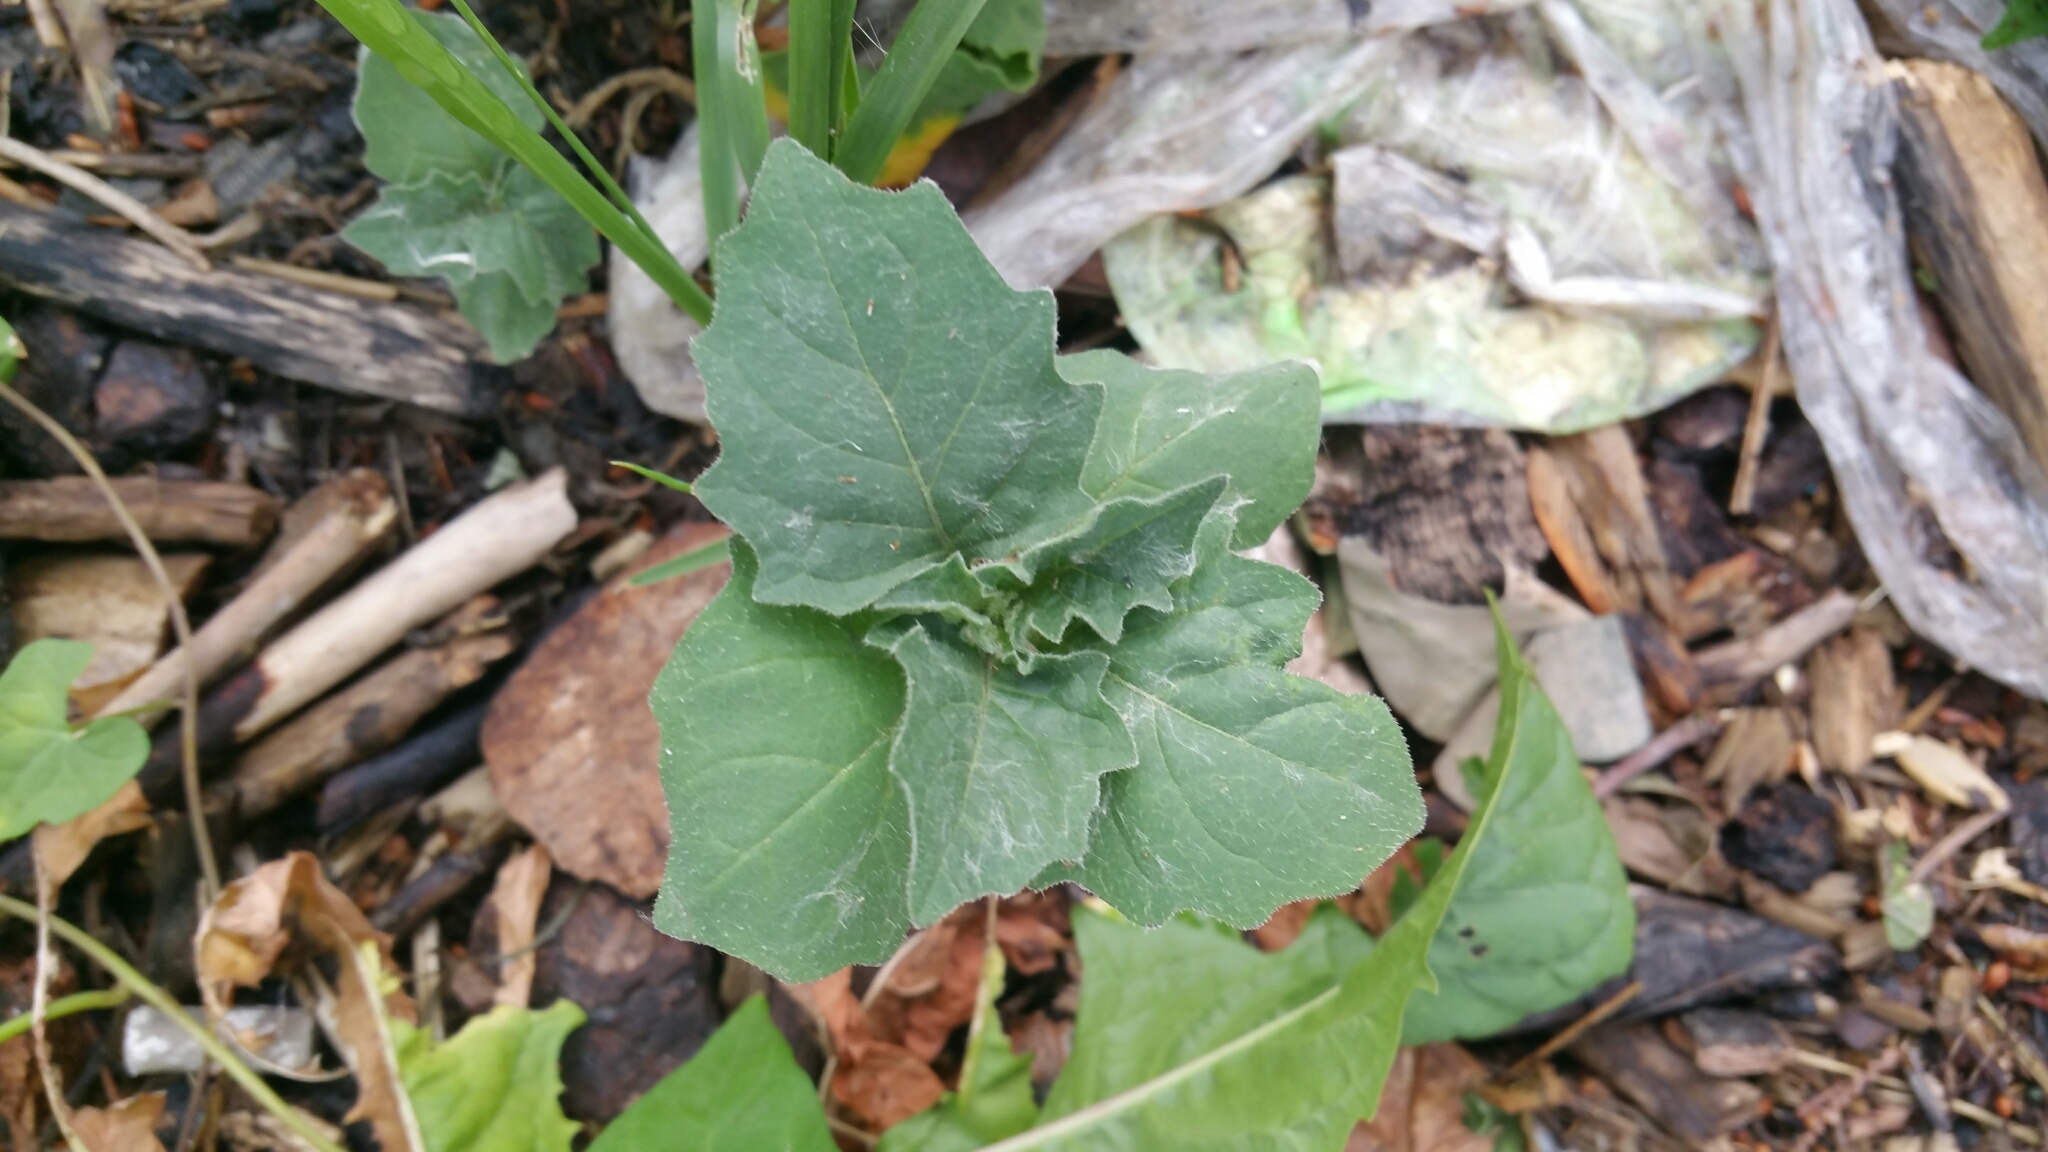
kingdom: Plantae
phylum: Tracheophyta
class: Magnoliopsida
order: Solanales
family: Solanaceae
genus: Solanum
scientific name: Solanum nigrum
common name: Black nightshade
